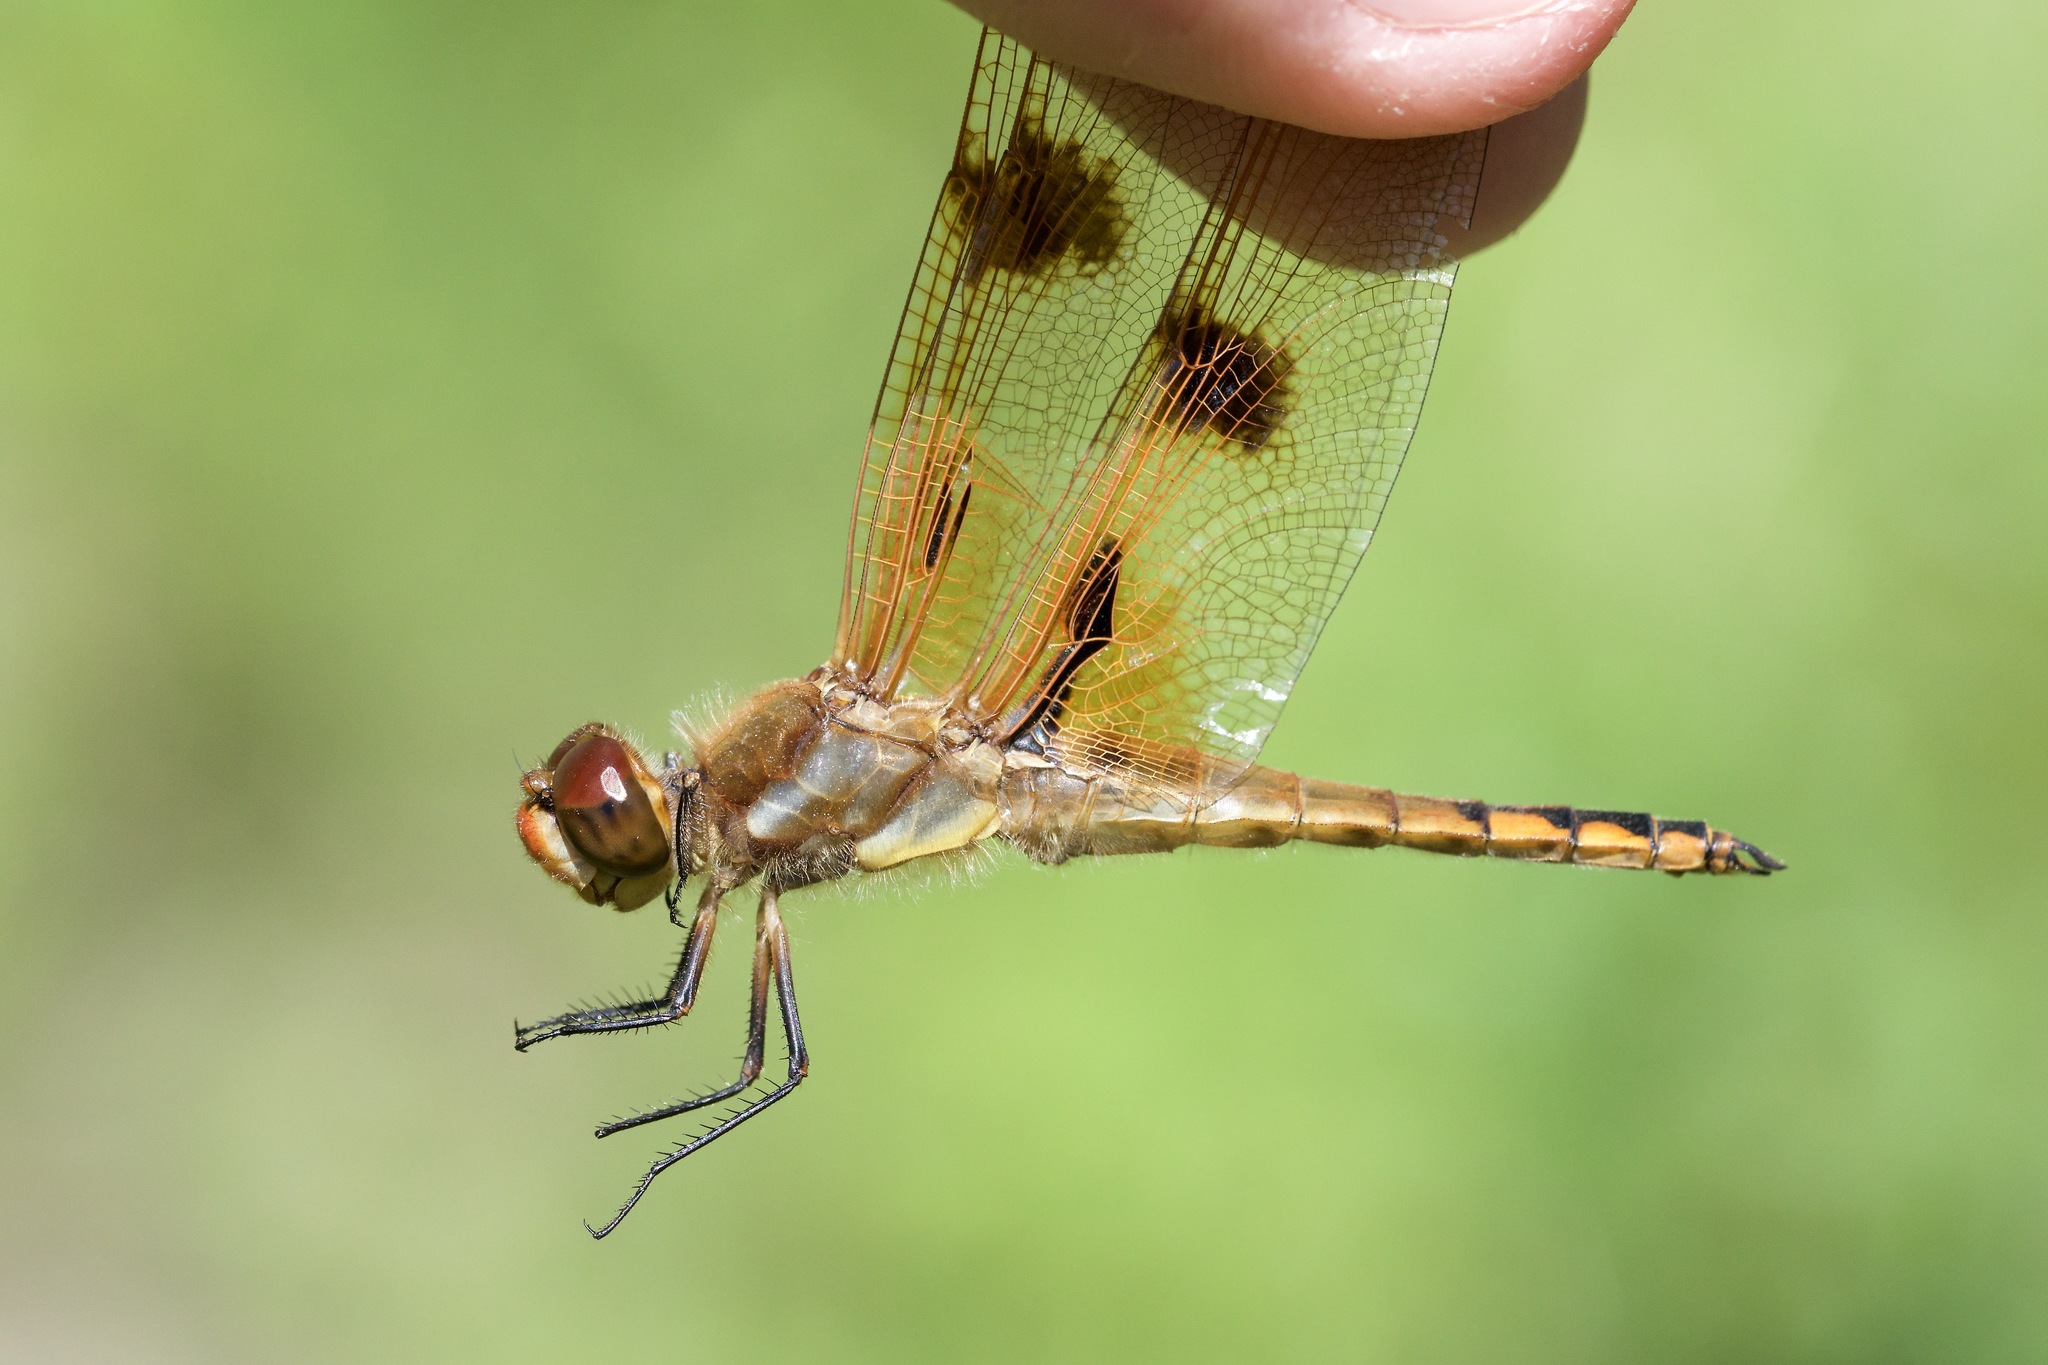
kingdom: Animalia
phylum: Arthropoda
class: Insecta
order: Odonata
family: Libellulidae
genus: Libellula
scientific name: Libellula semifasciata
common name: Painted skimmer
